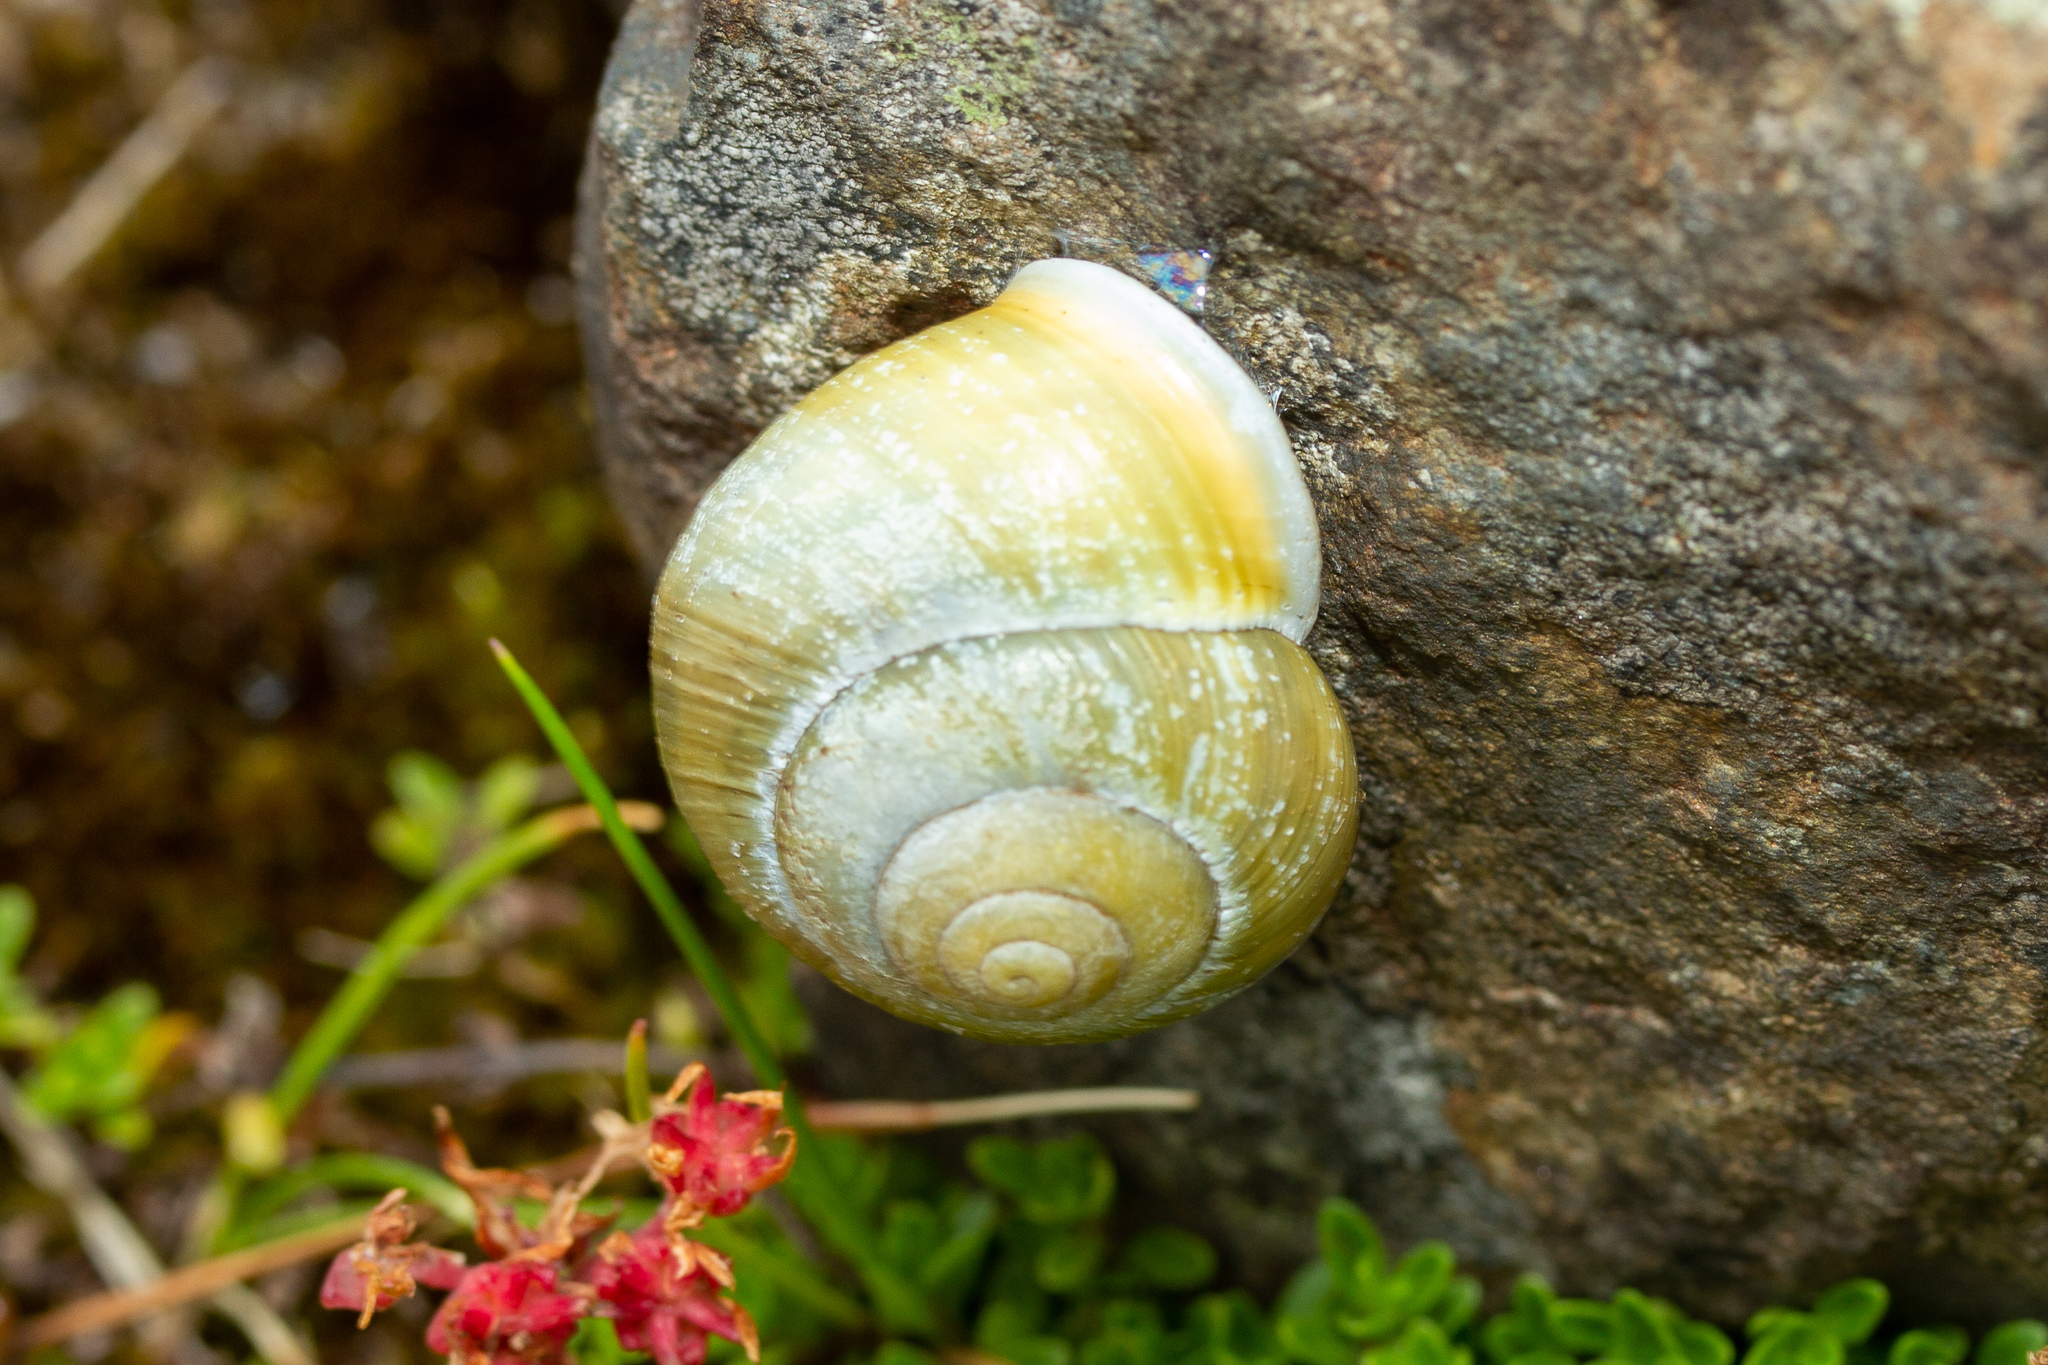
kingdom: Animalia
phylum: Mollusca
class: Gastropoda
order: Stylommatophora
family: Helicidae
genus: Cepaea
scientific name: Cepaea hortensis
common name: White-lip gardensnail
